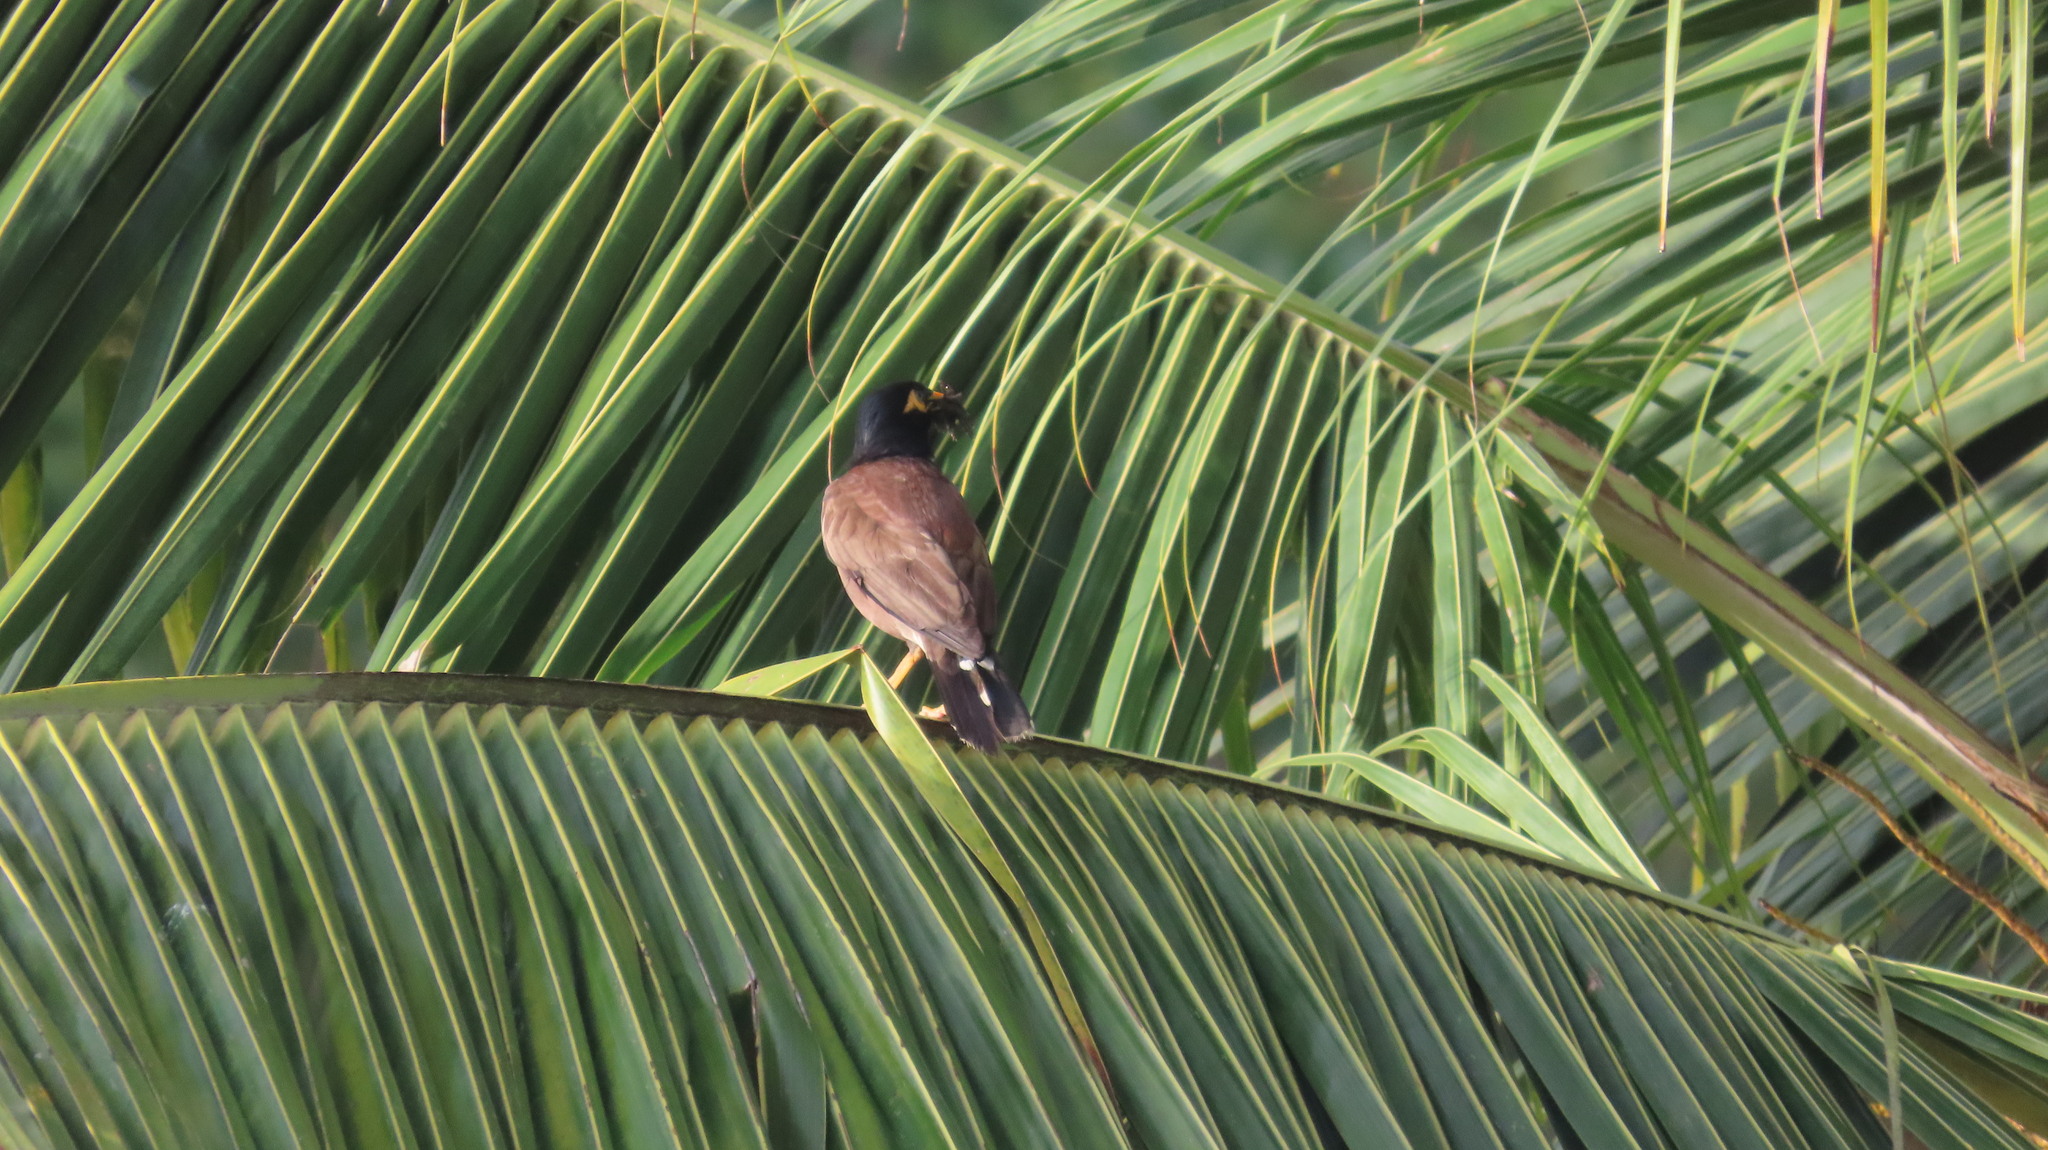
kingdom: Animalia
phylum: Chordata
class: Aves
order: Passeriformes
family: Sturnidae
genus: Acridotheres
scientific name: Acridotheres tristis
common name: Common myna
